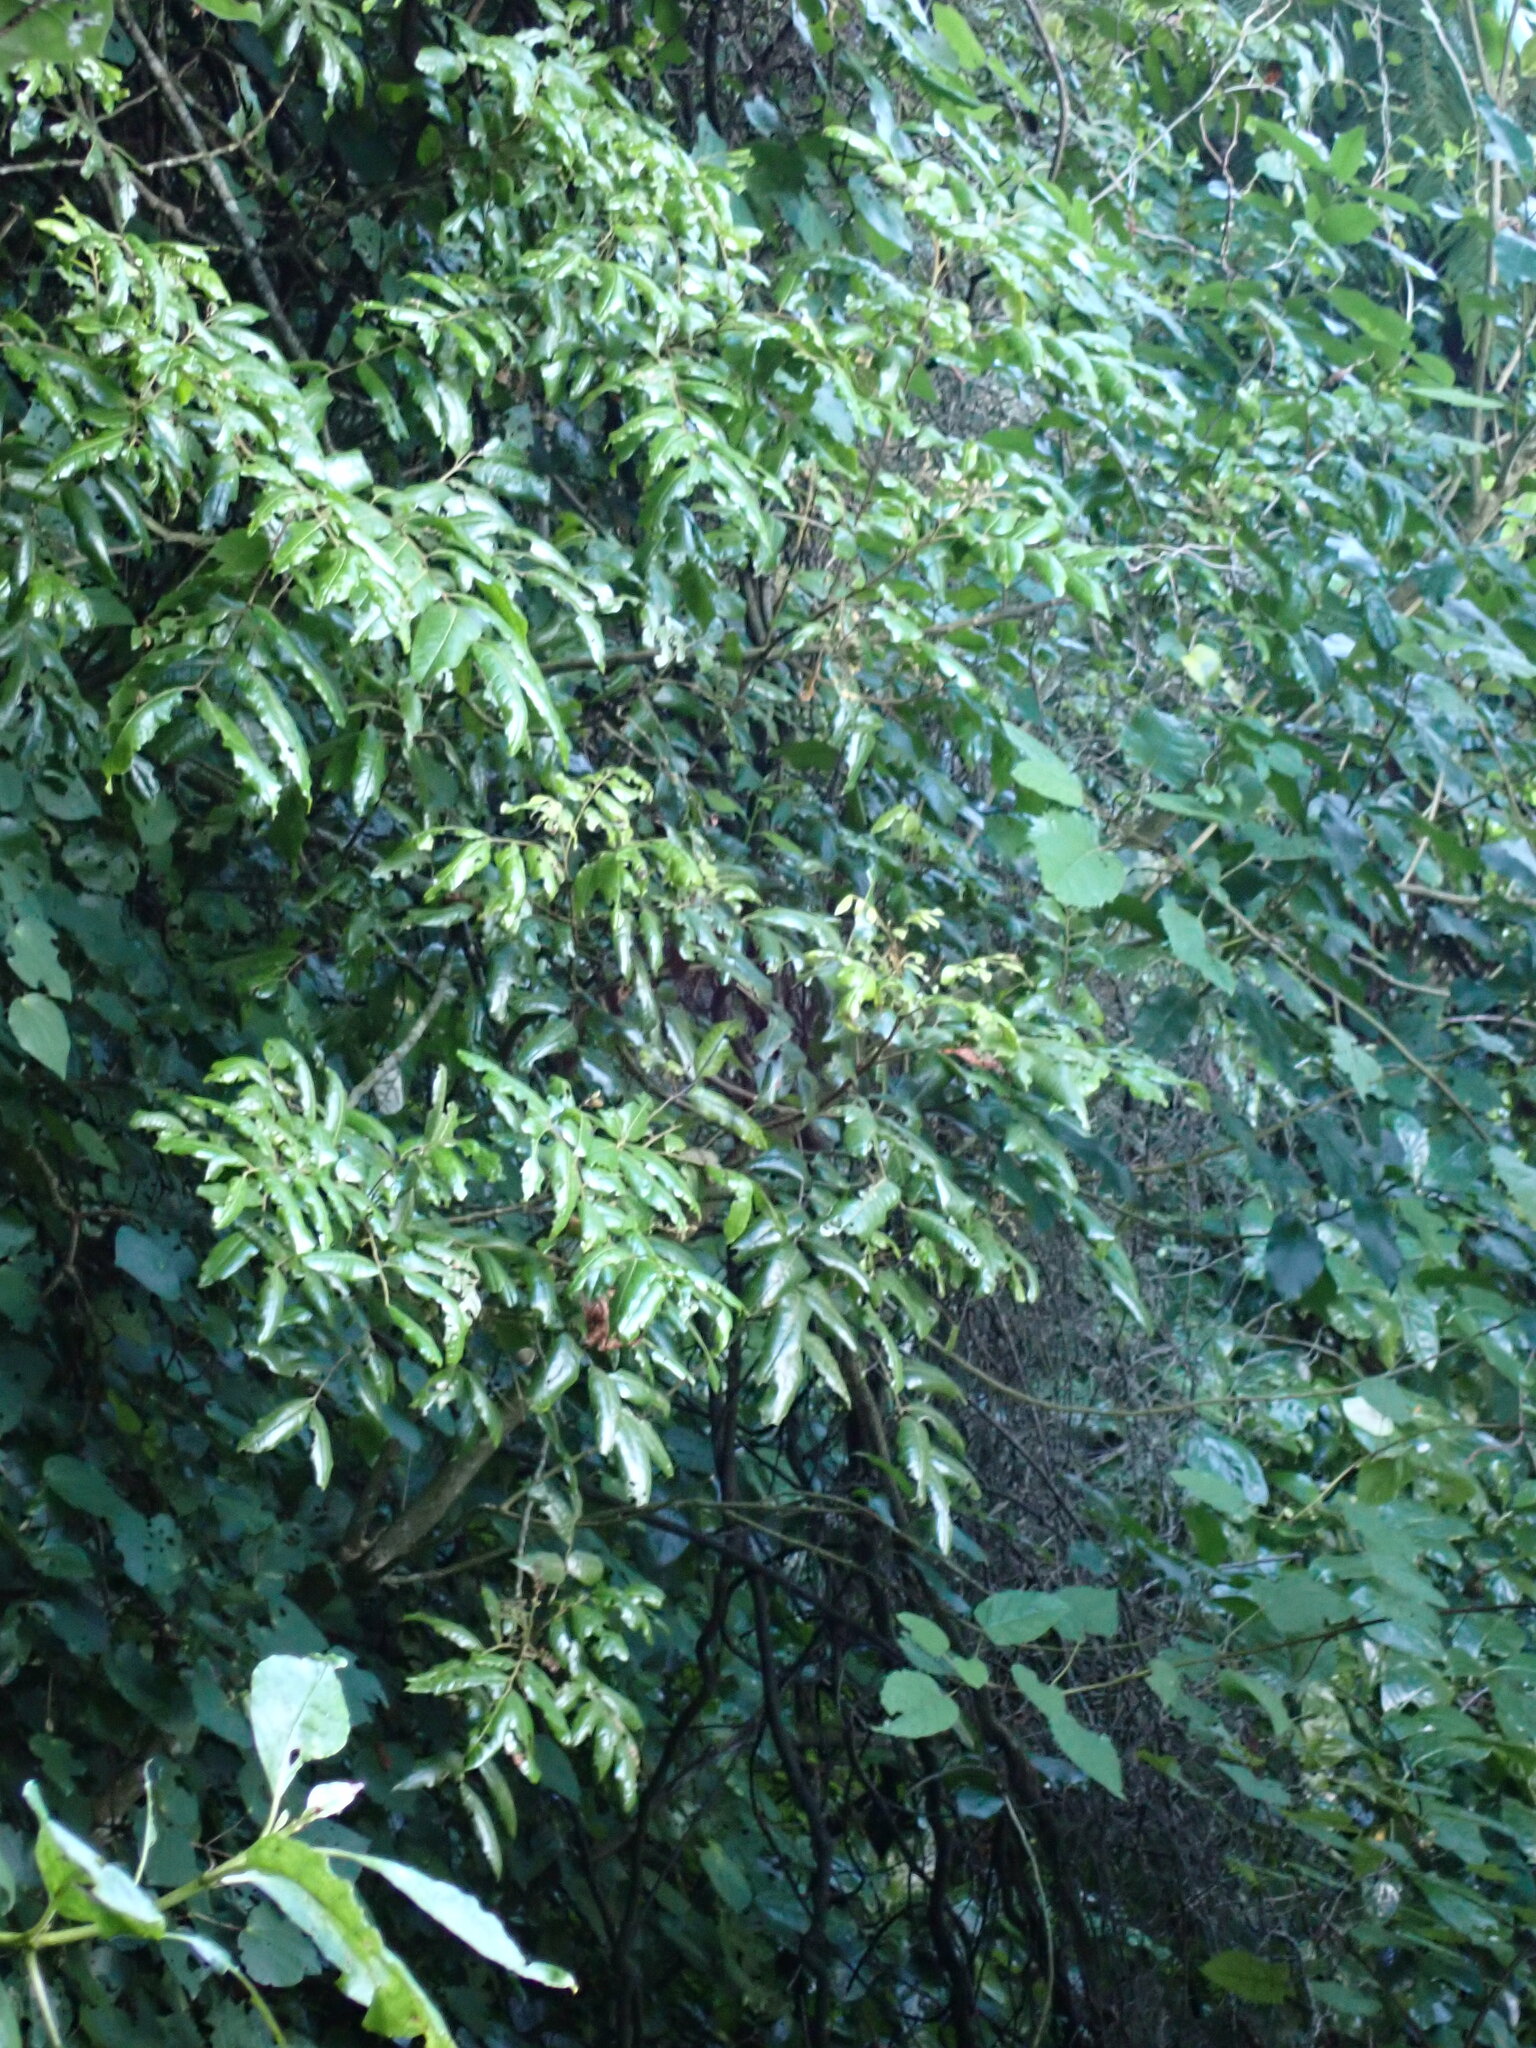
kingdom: Plantae
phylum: Tracheophyta
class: Magnoliopsida
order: Sapindales
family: Sapindaceae
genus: Alectryon
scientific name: Alectryon excelsus
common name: Three kings titoki
